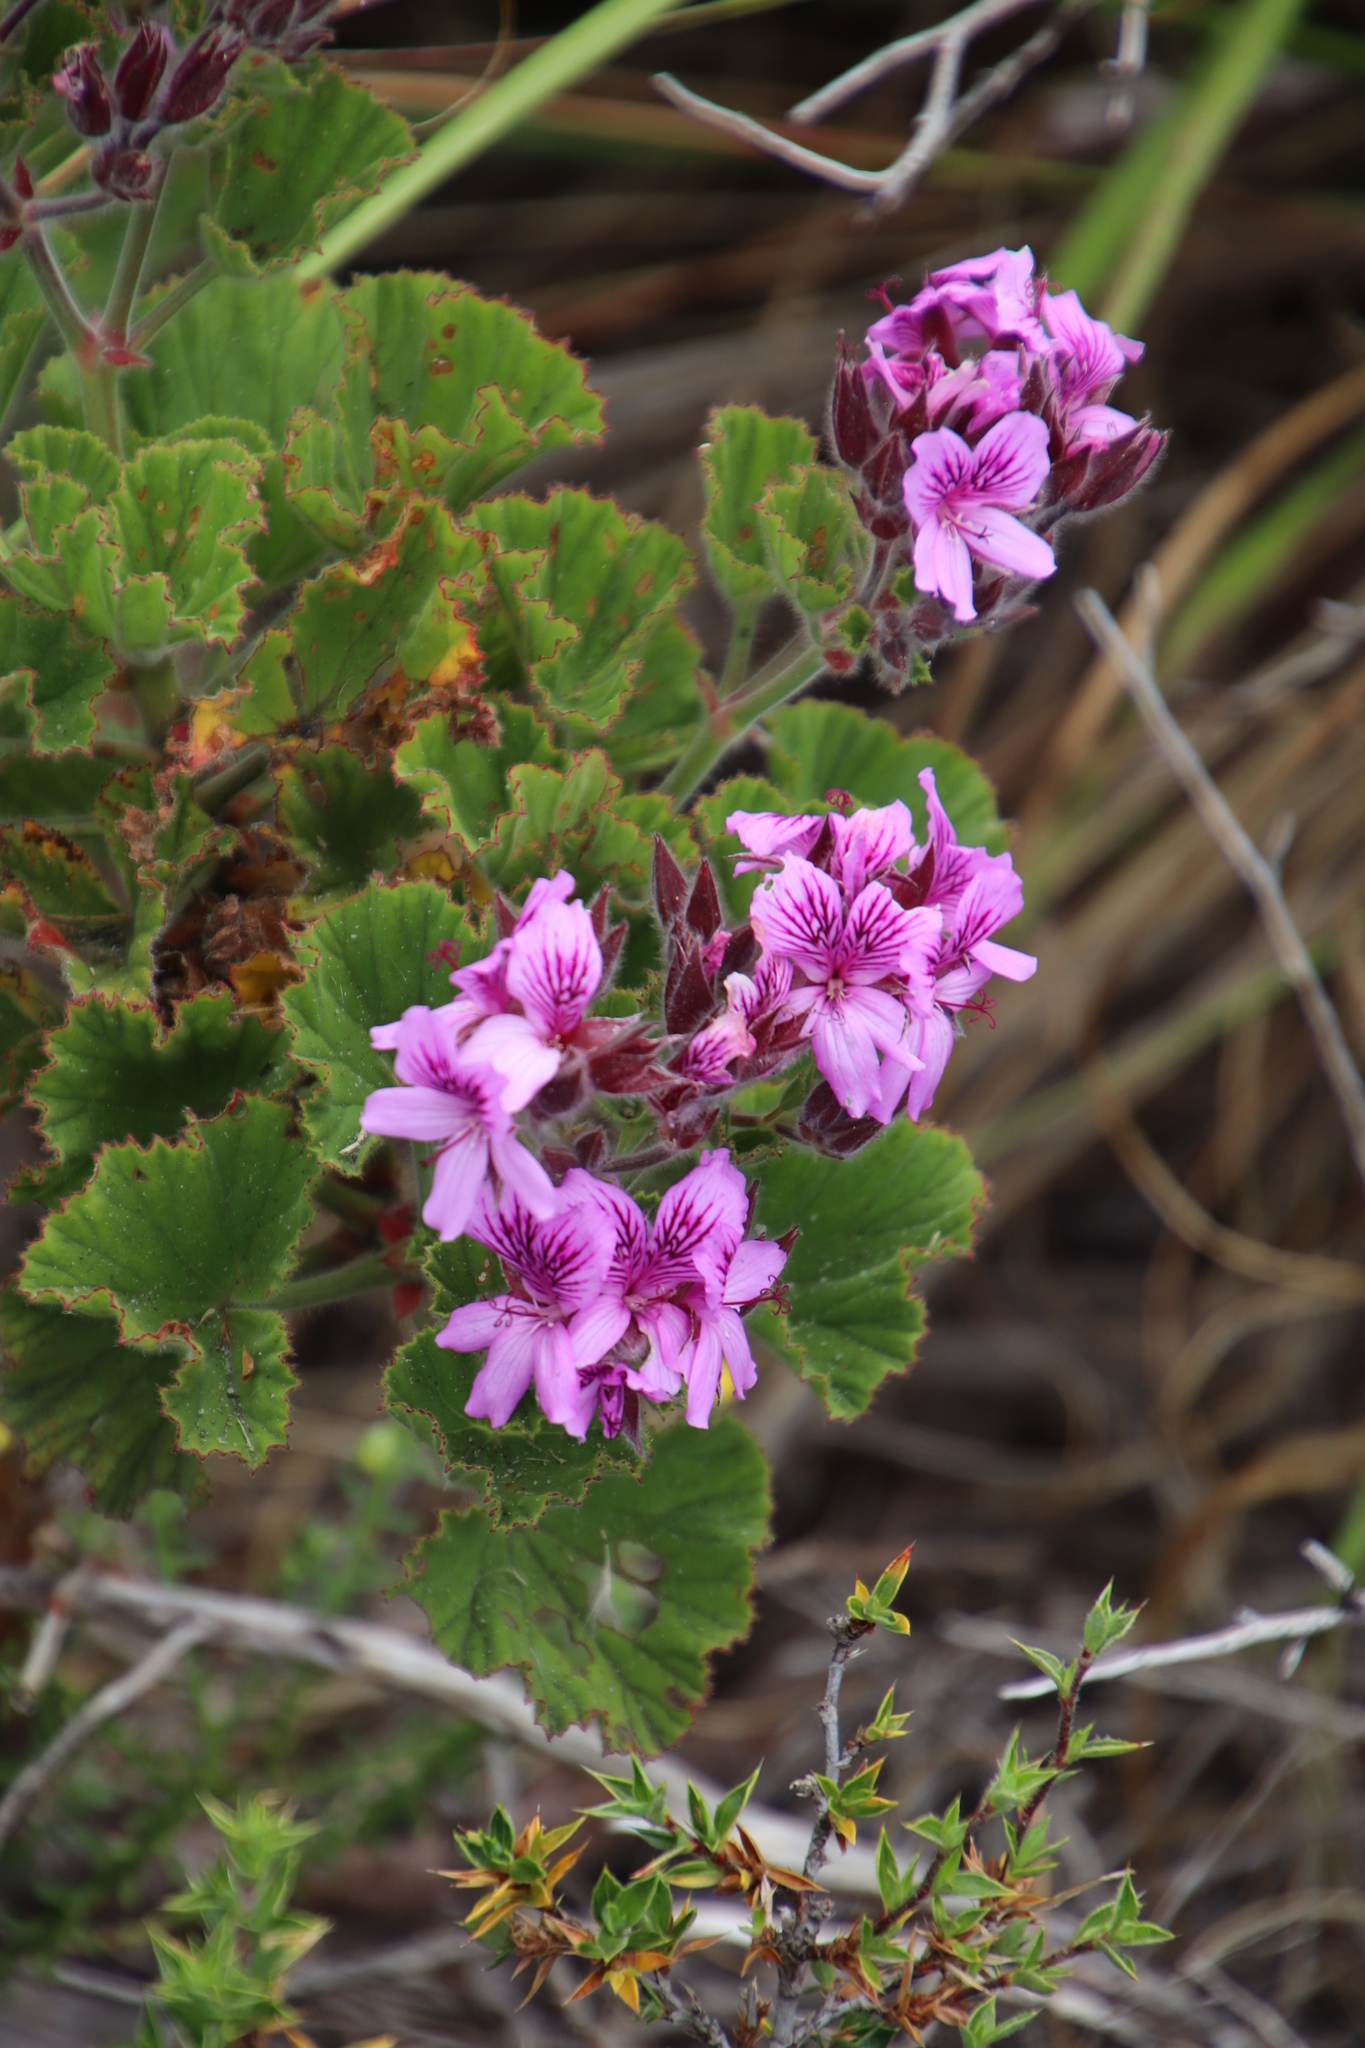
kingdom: Plantae
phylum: Tracheophyta
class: Magnoliopsida
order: Geraniales
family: Geraniaceae
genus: Pelargonium
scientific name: Pelargonium cucullatum
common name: Tree pelargonium
